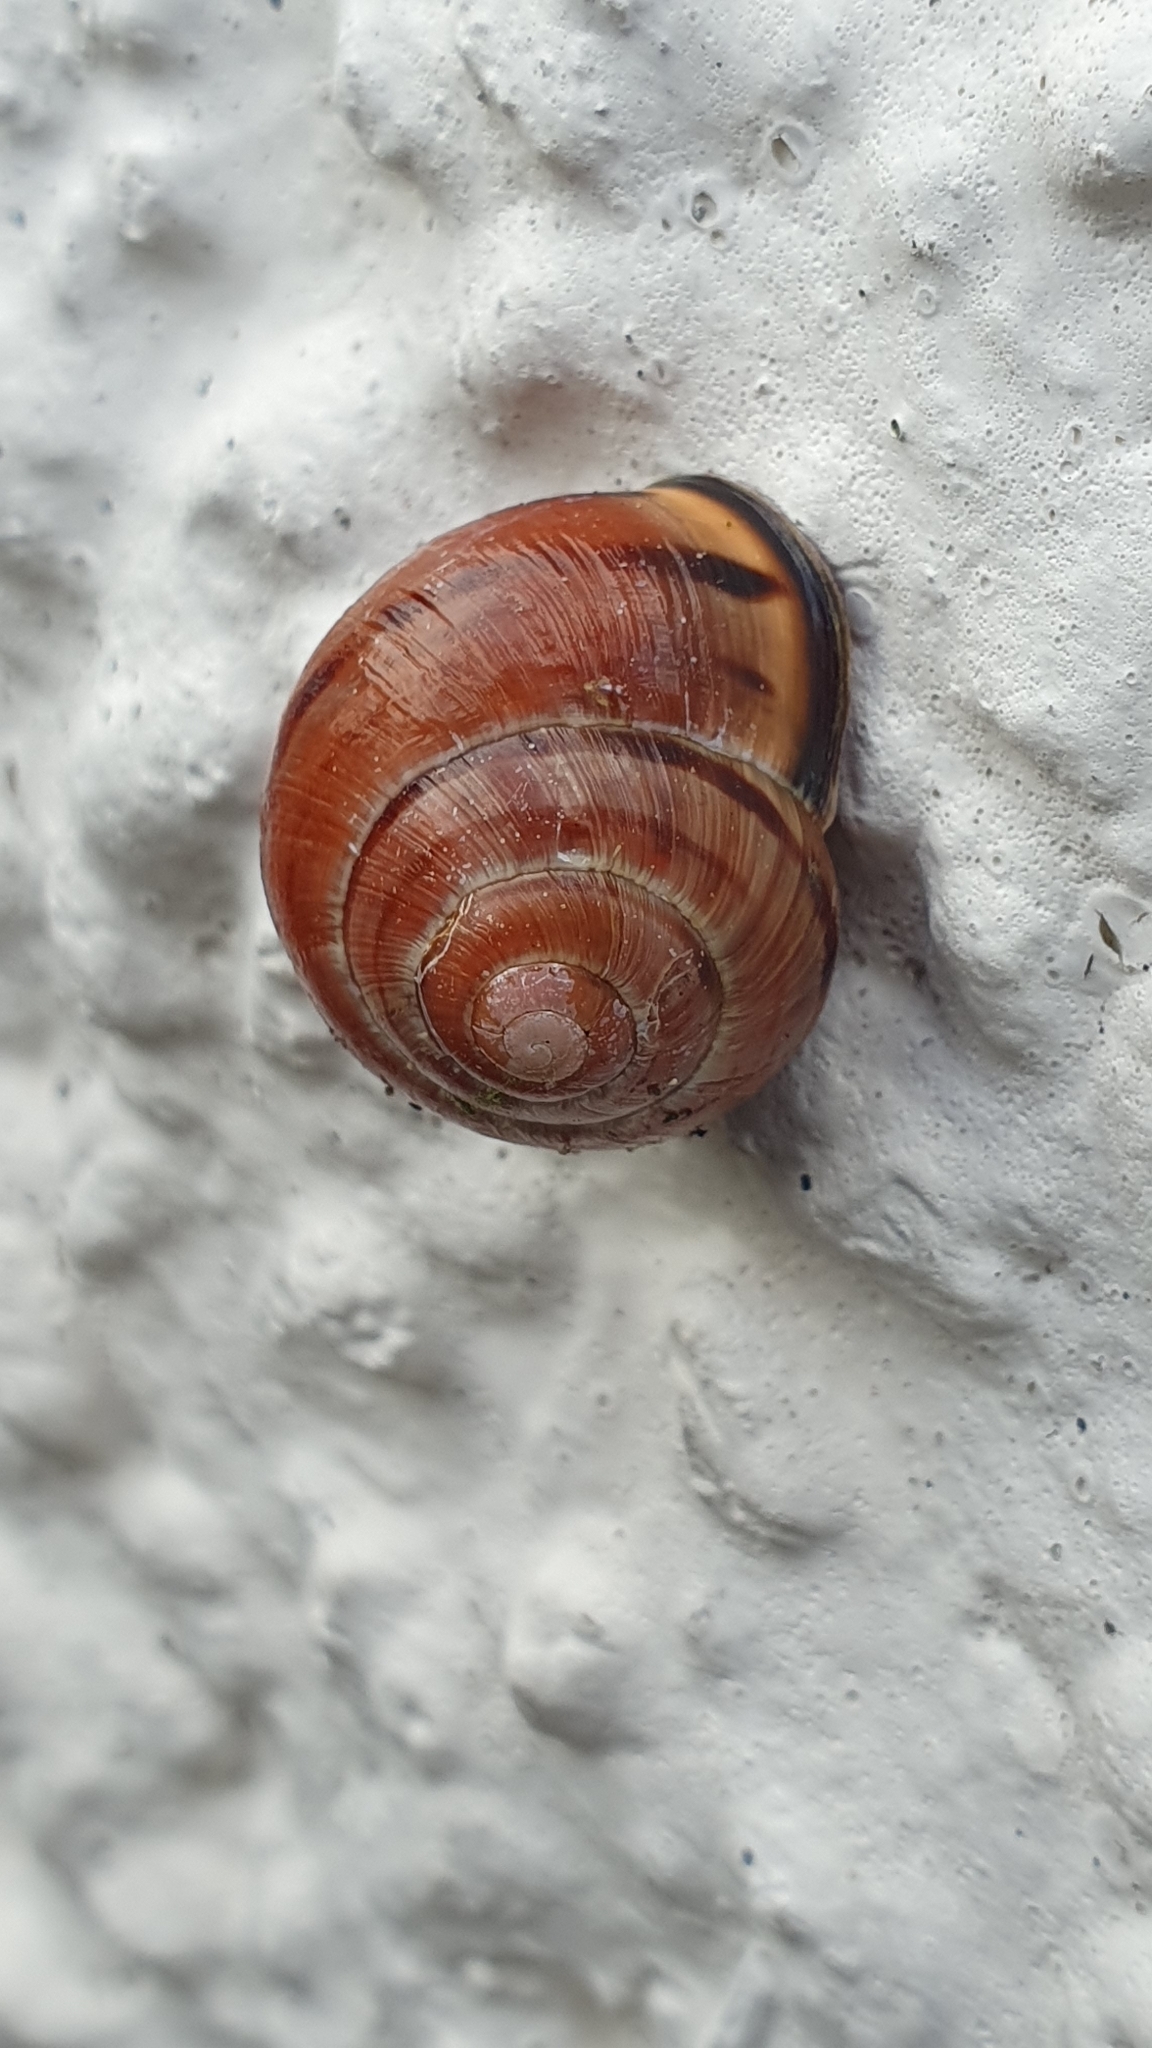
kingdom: Animalia
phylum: Mollusca
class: Gastropoda
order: Stylommatophora
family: Helicidae
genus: Cepaea
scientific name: Cepaea nemoralis
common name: Grovesnail
